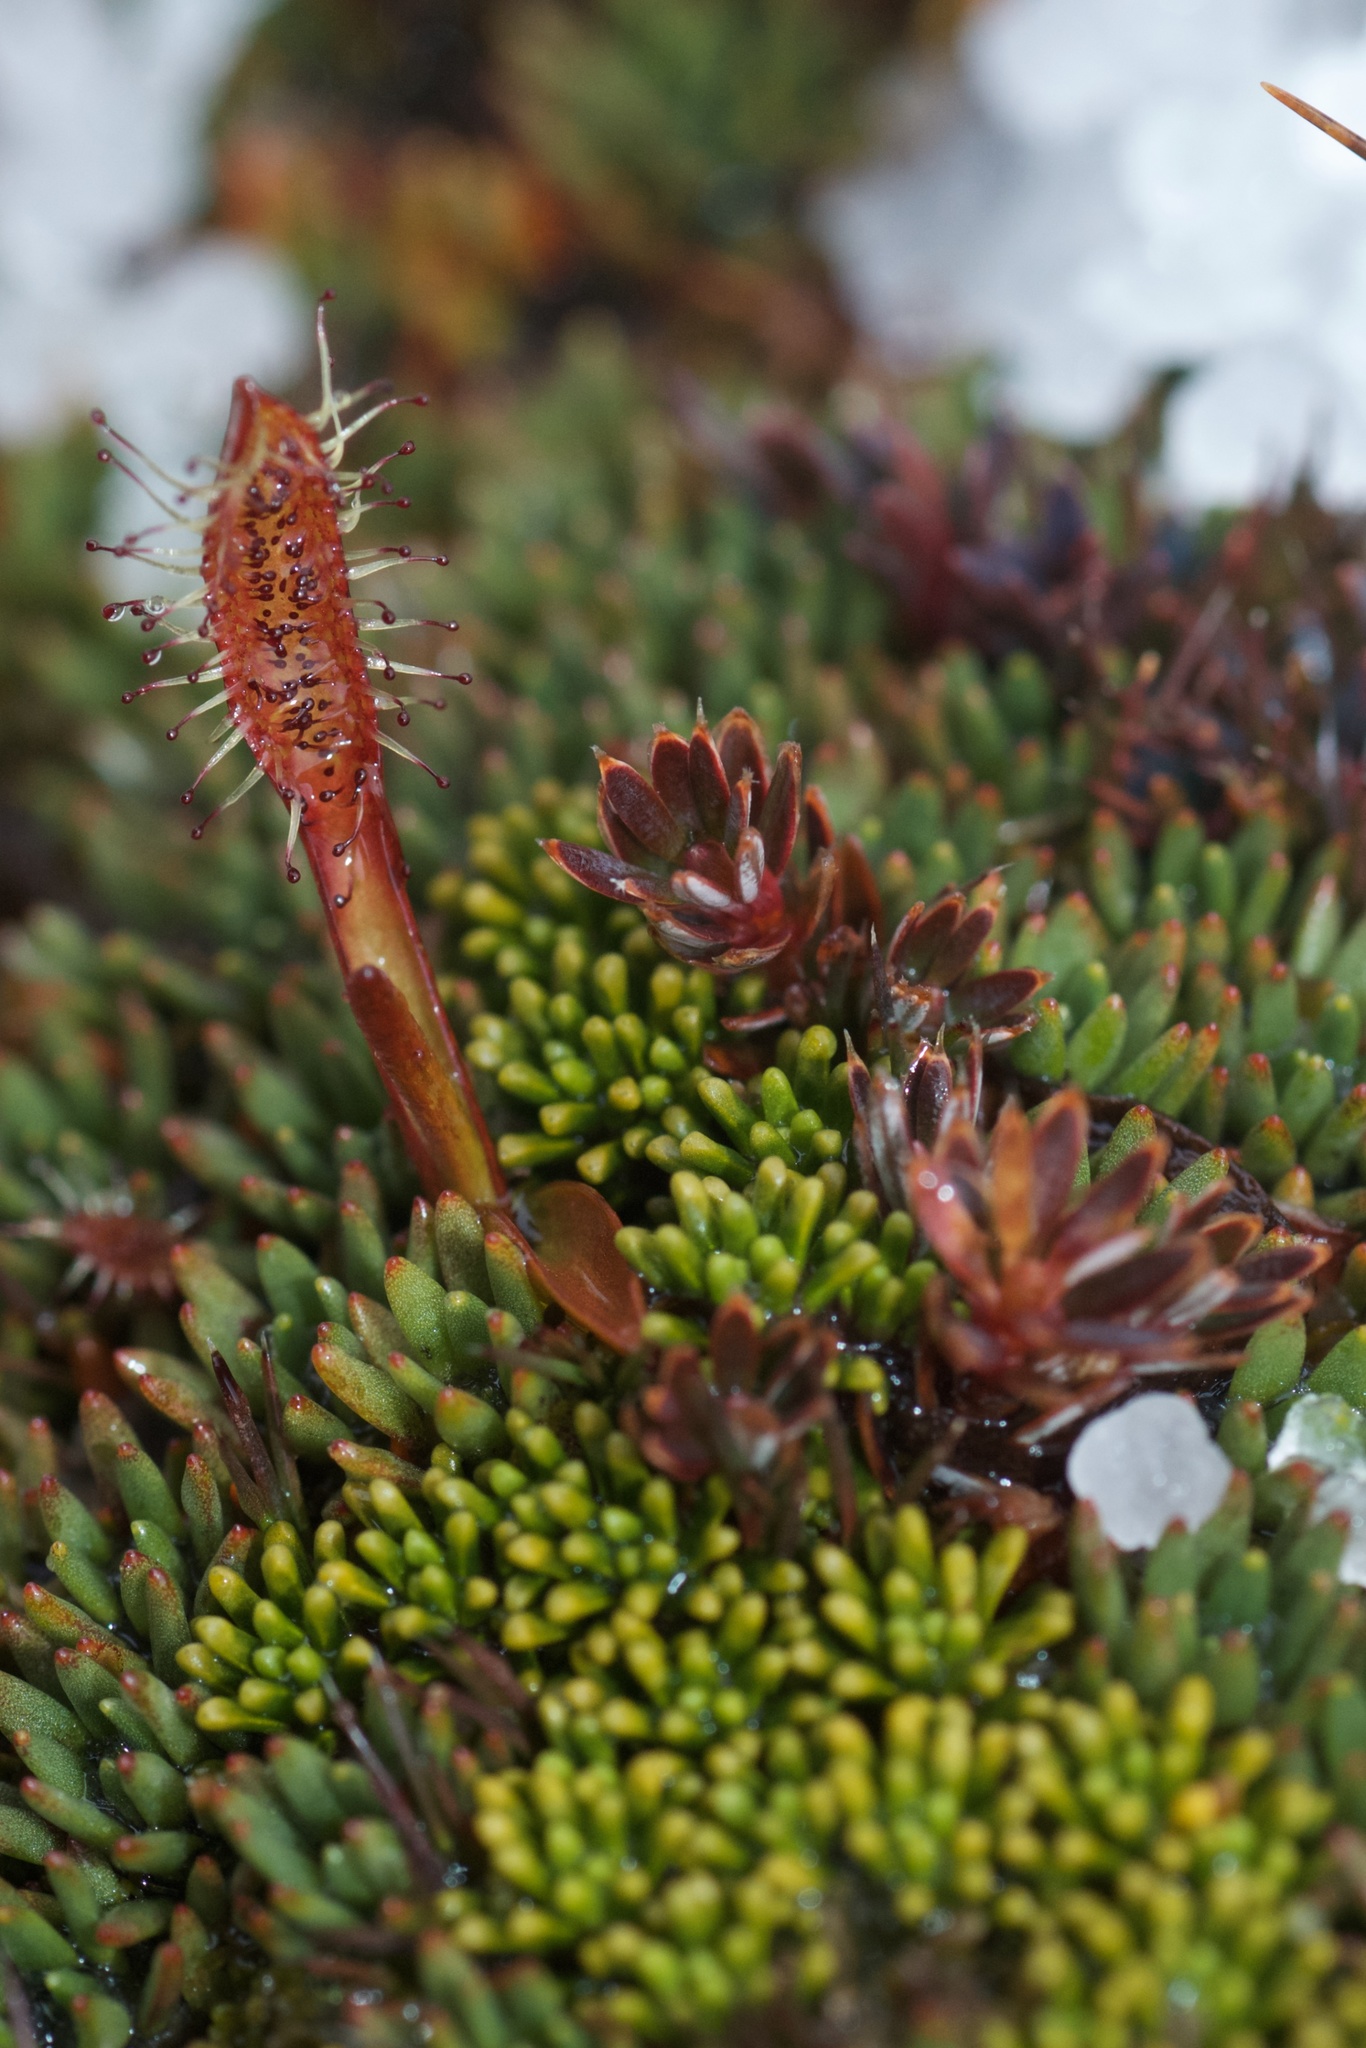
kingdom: Plantae
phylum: Tracheophyta
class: Magnoliopsida
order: Caryophyllales
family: Droseraceae
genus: Drosera
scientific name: Drosera arcturi
